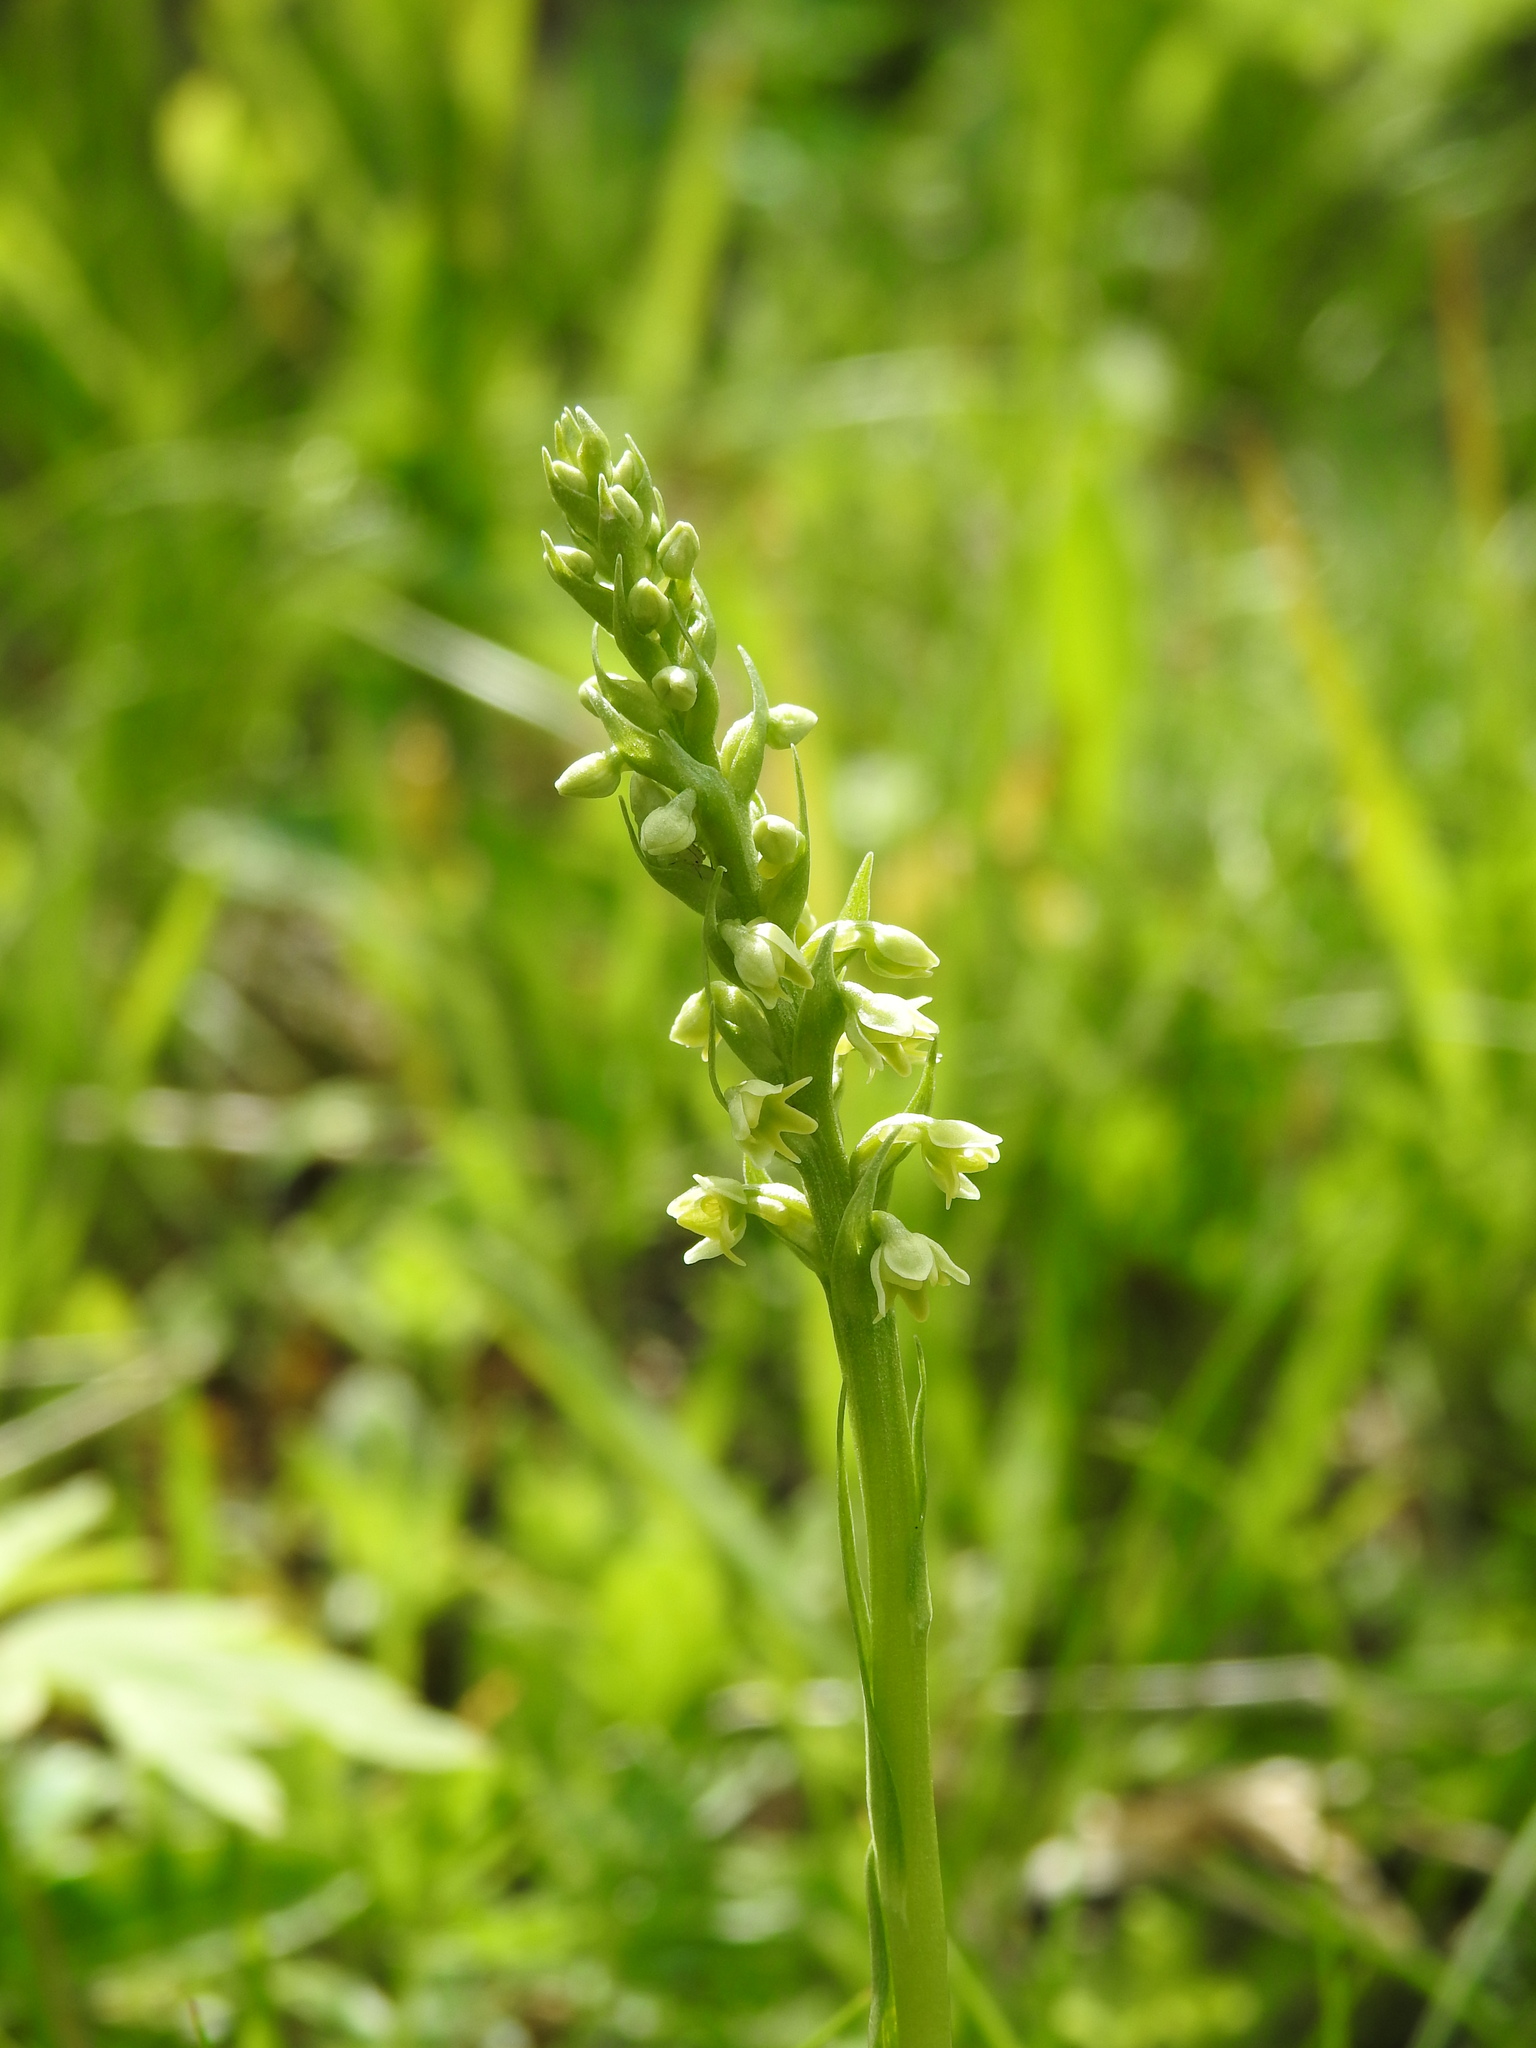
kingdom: Plantae
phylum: Tracheophyta
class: Liliopsida
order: Asparagales
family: Orchidaceae
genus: Pseudorchis
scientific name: Pseudorchis albida
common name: Small-white orchid
